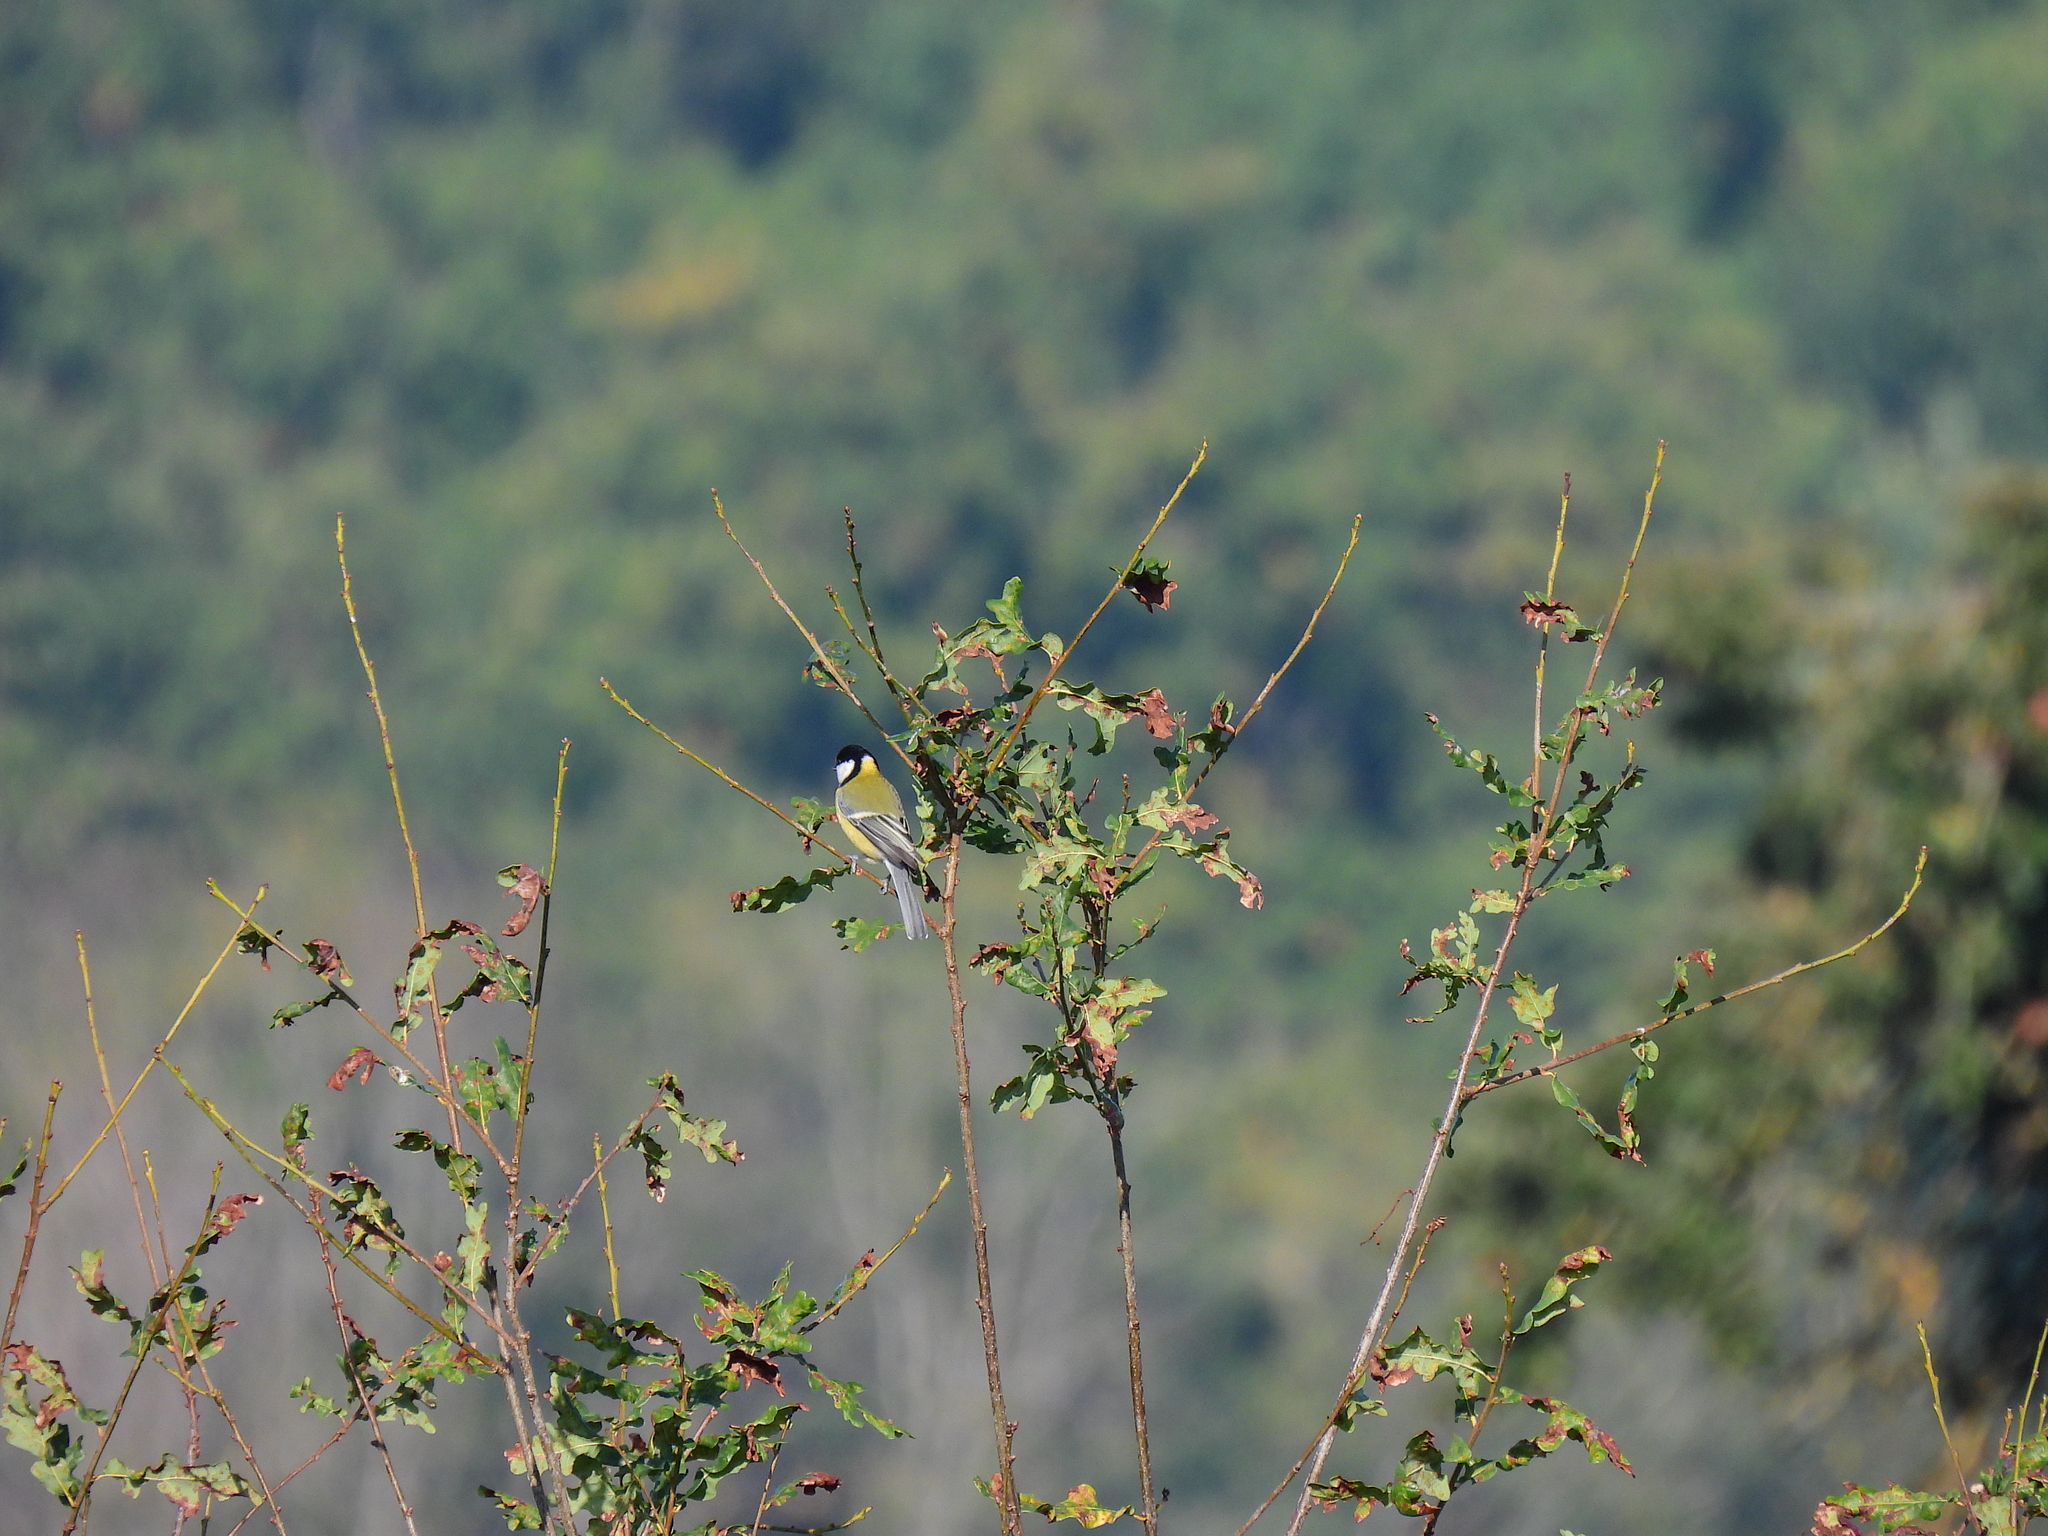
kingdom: Animalia
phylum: Chordata
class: Aves
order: Passeriformes
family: Paridae
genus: Parus
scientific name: Parus major
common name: Great tit
